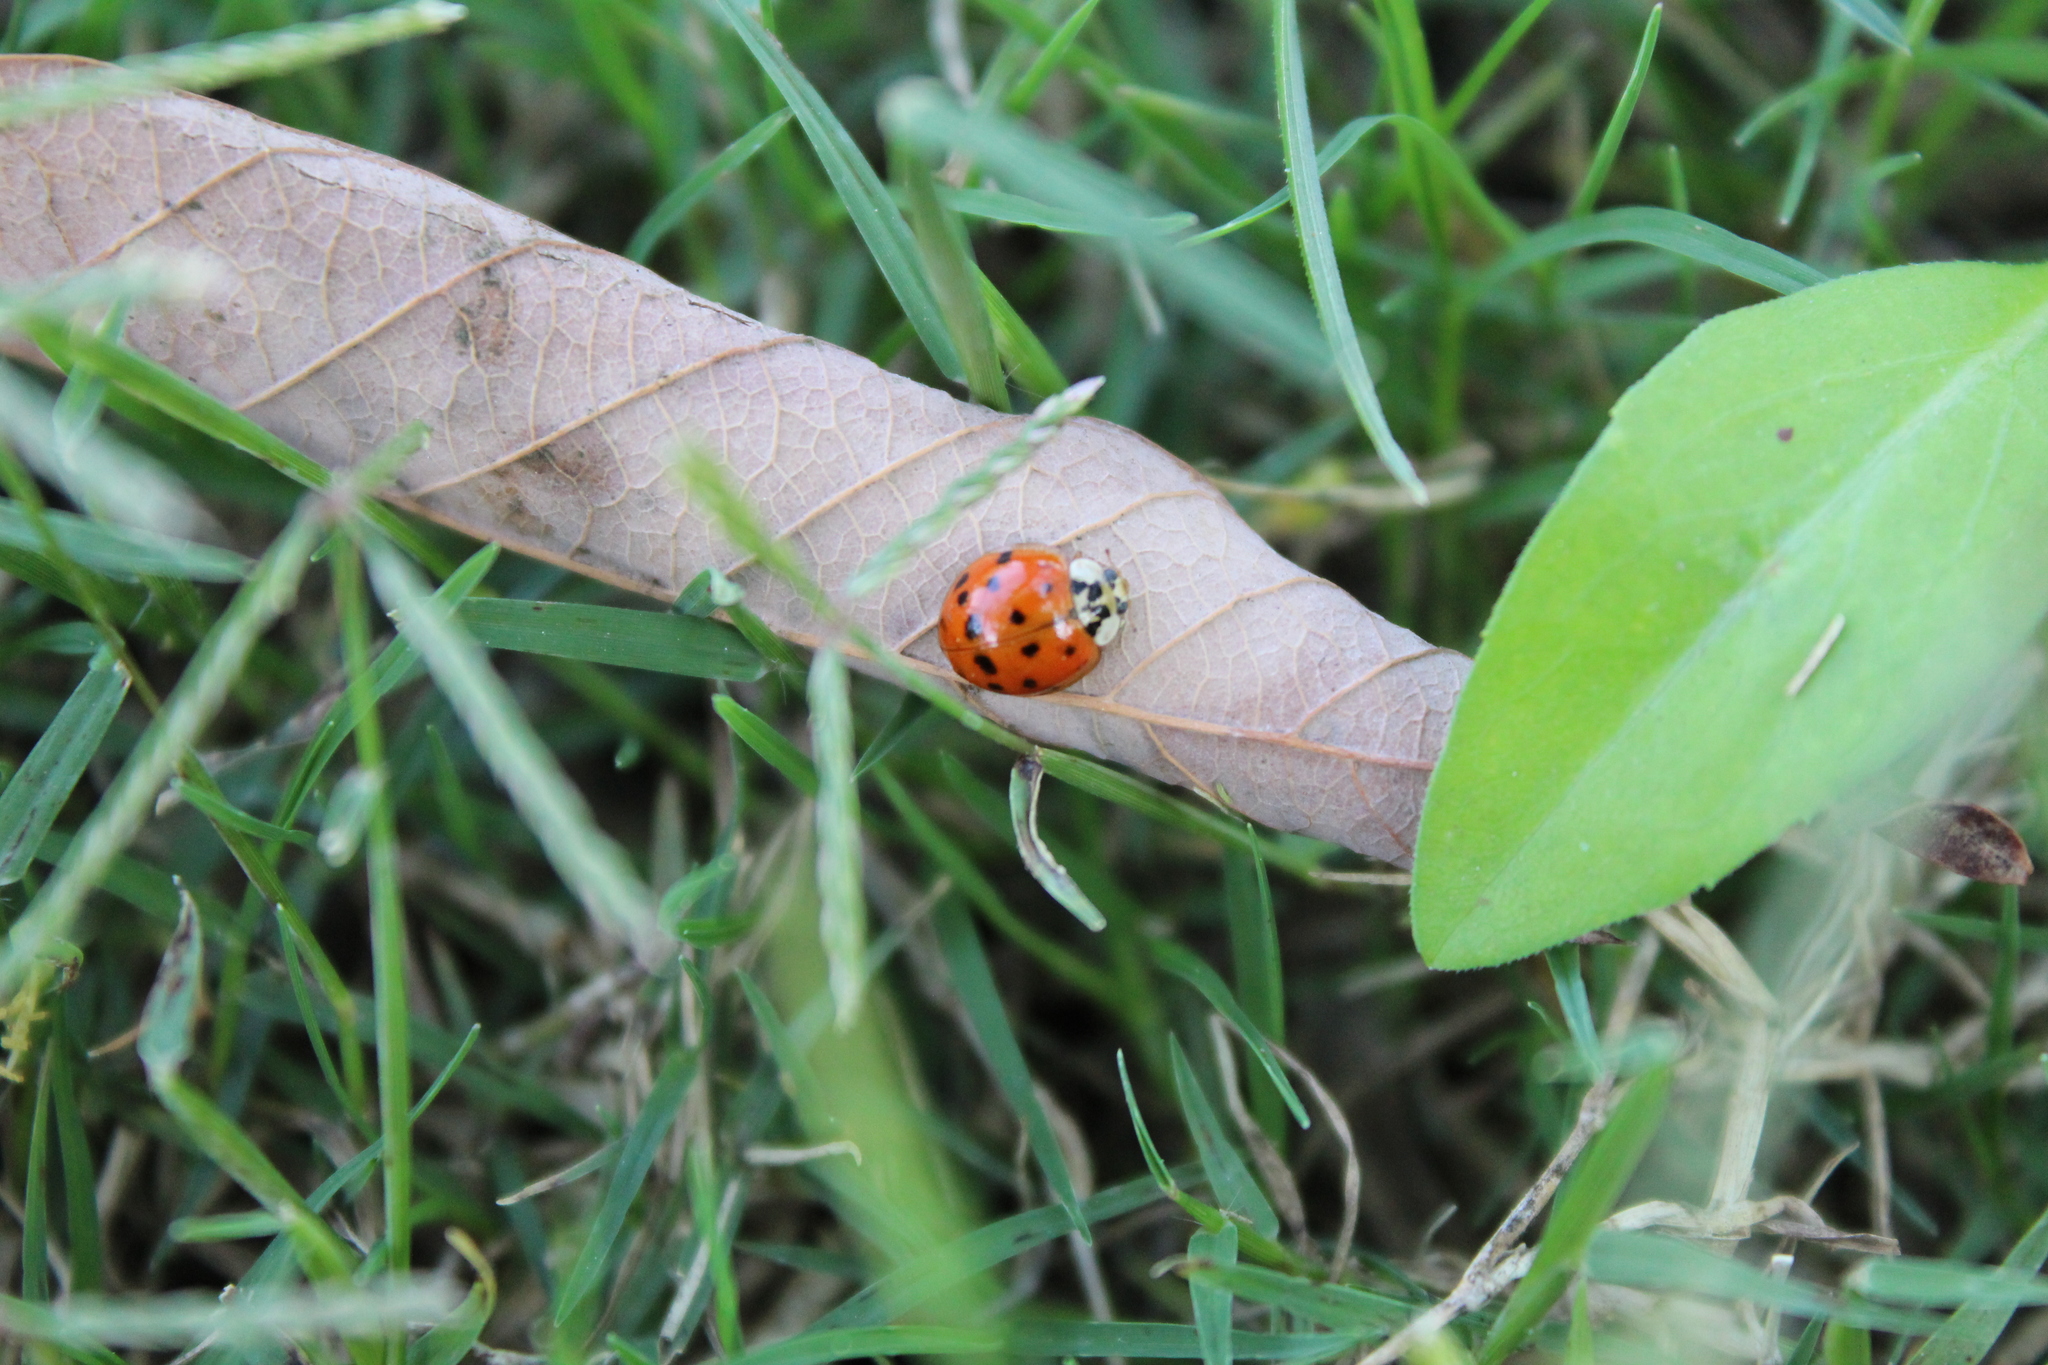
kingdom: Animalia
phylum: Arthropoda
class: Insecta
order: Coleoptera
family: Coccinellidae
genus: Harmonia
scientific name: Harmonia axyridis
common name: Harlequin ladybird
